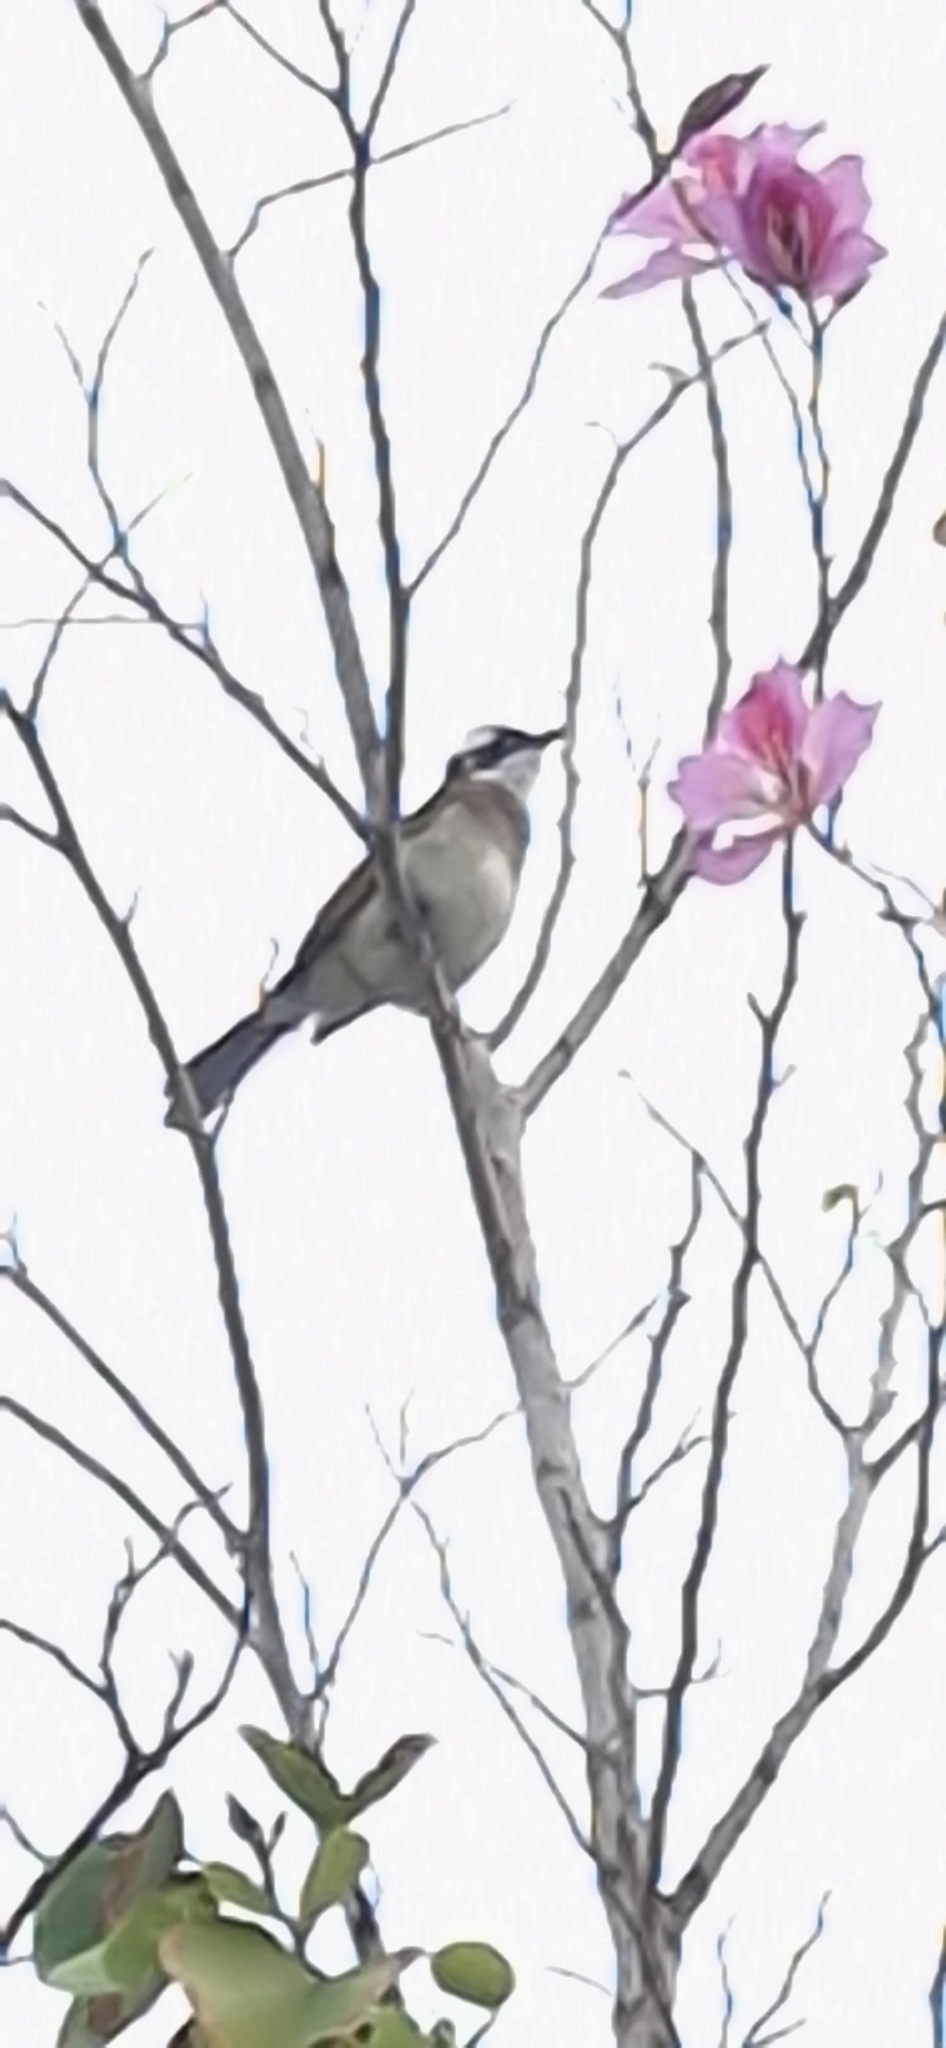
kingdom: Animalia
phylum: Chordata
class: Aves
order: Passeriformes
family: Pycnonotidae
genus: Pycnonotus
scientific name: Pycnonotus sinensis
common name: Light-vented bulbul
